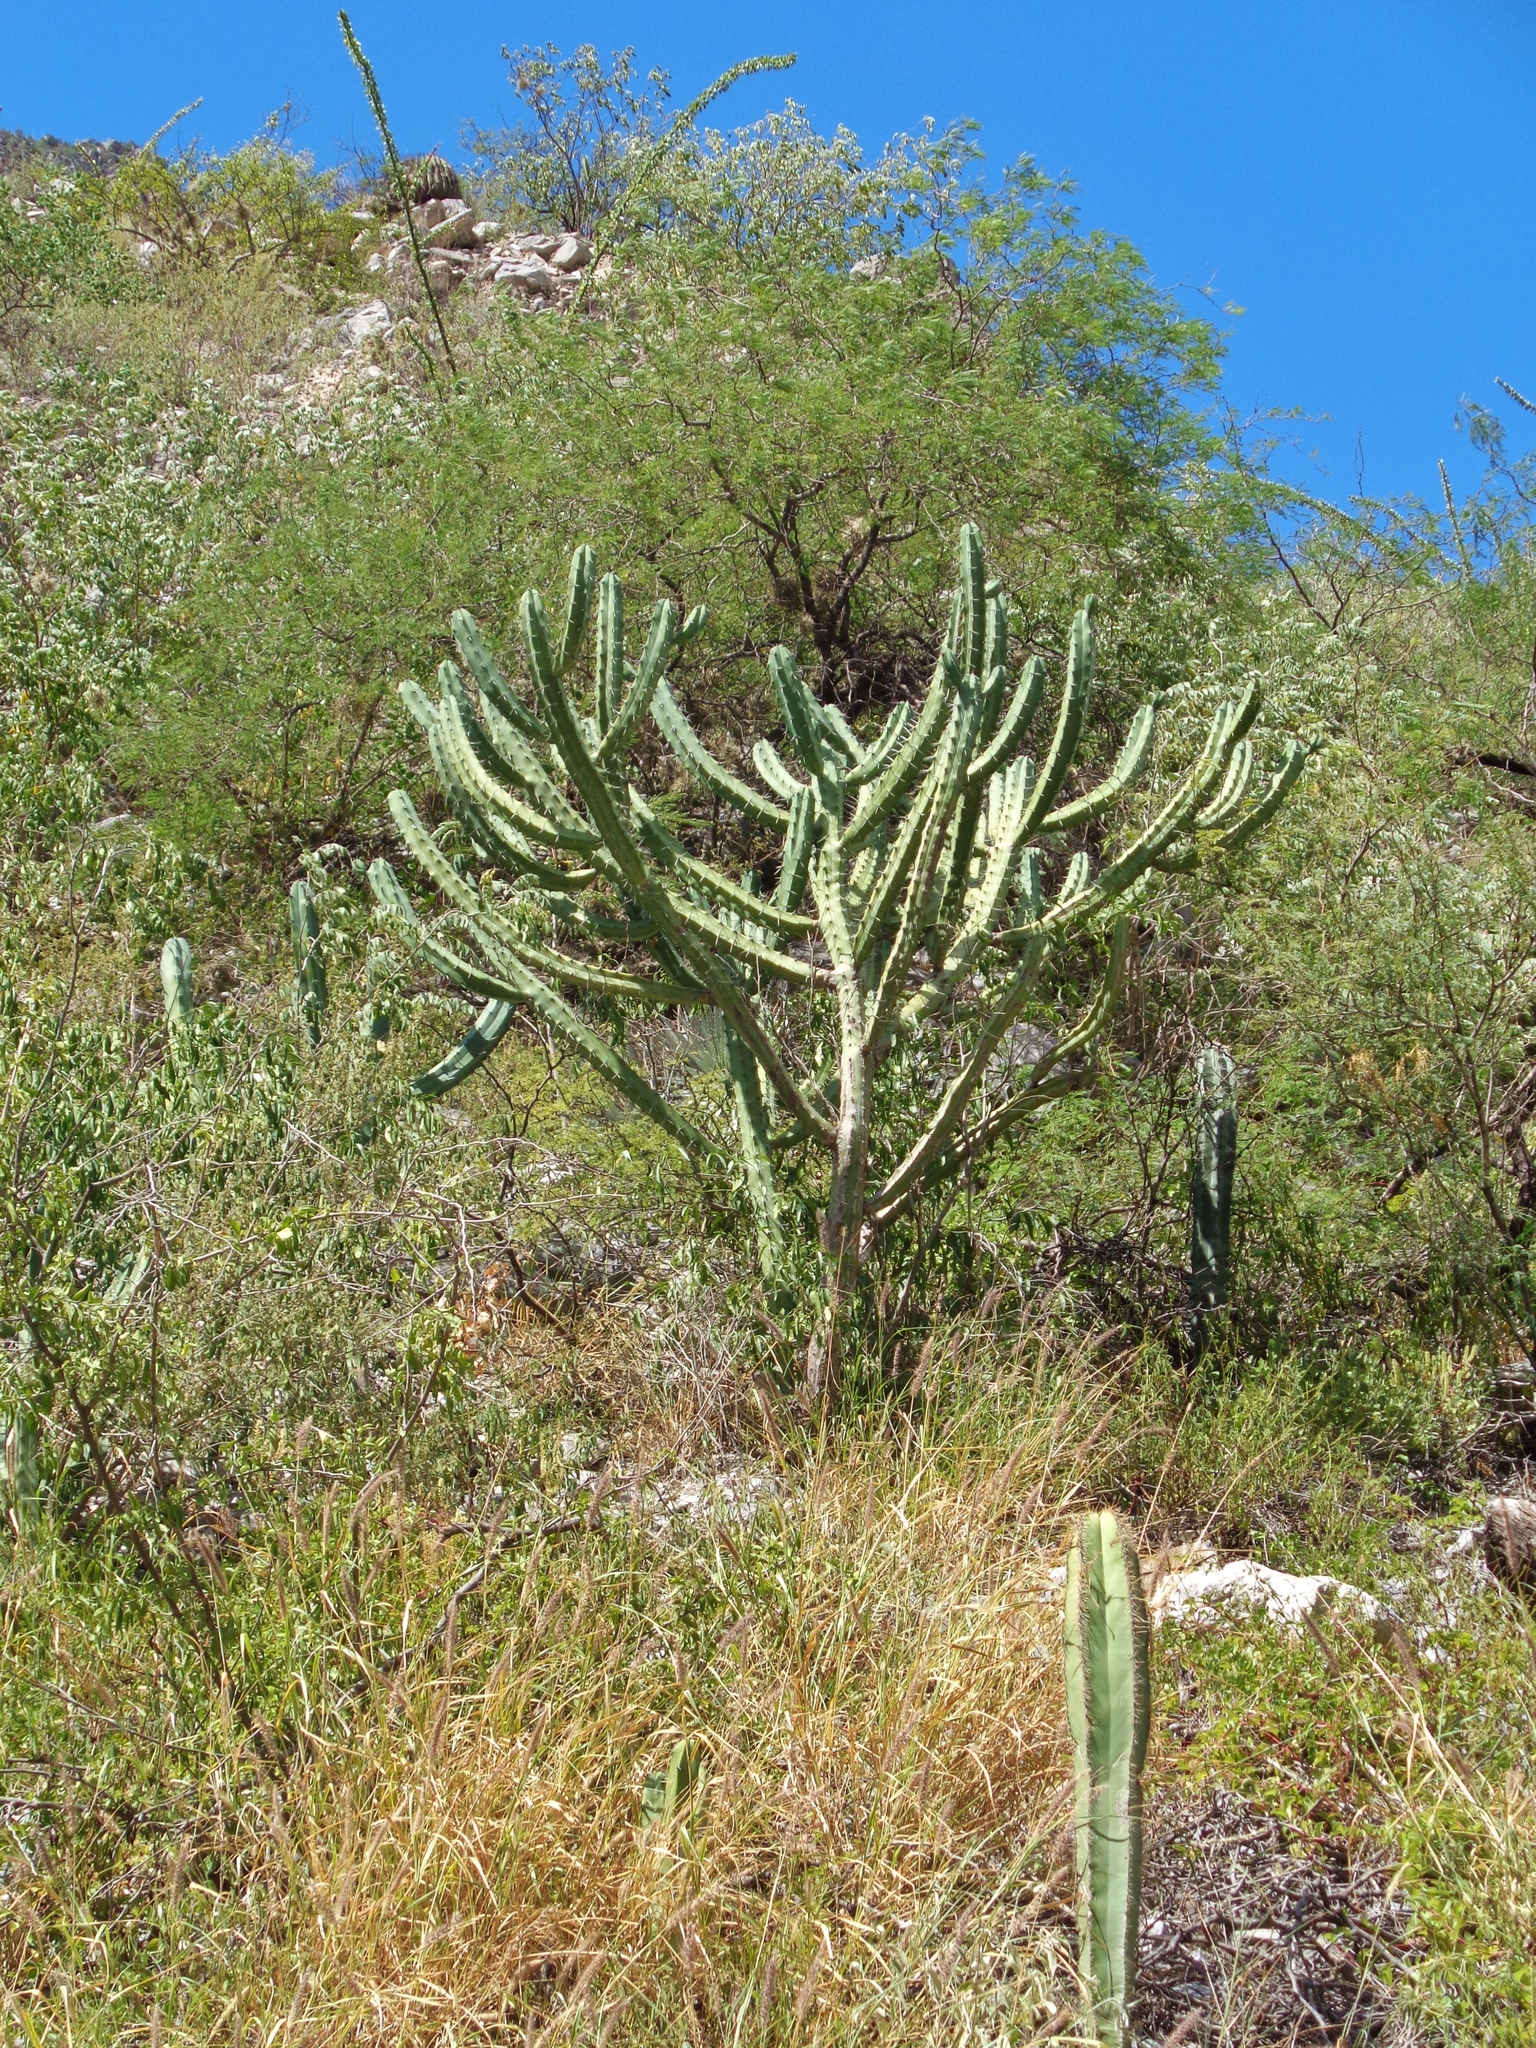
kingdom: Plantae
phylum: Tracheophyta
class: Magnoliopsida
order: Caryophyllales
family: Cactaceae
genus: Myrtillocactus
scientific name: Myrtillocactus geometrizans
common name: Bilberry cactus
